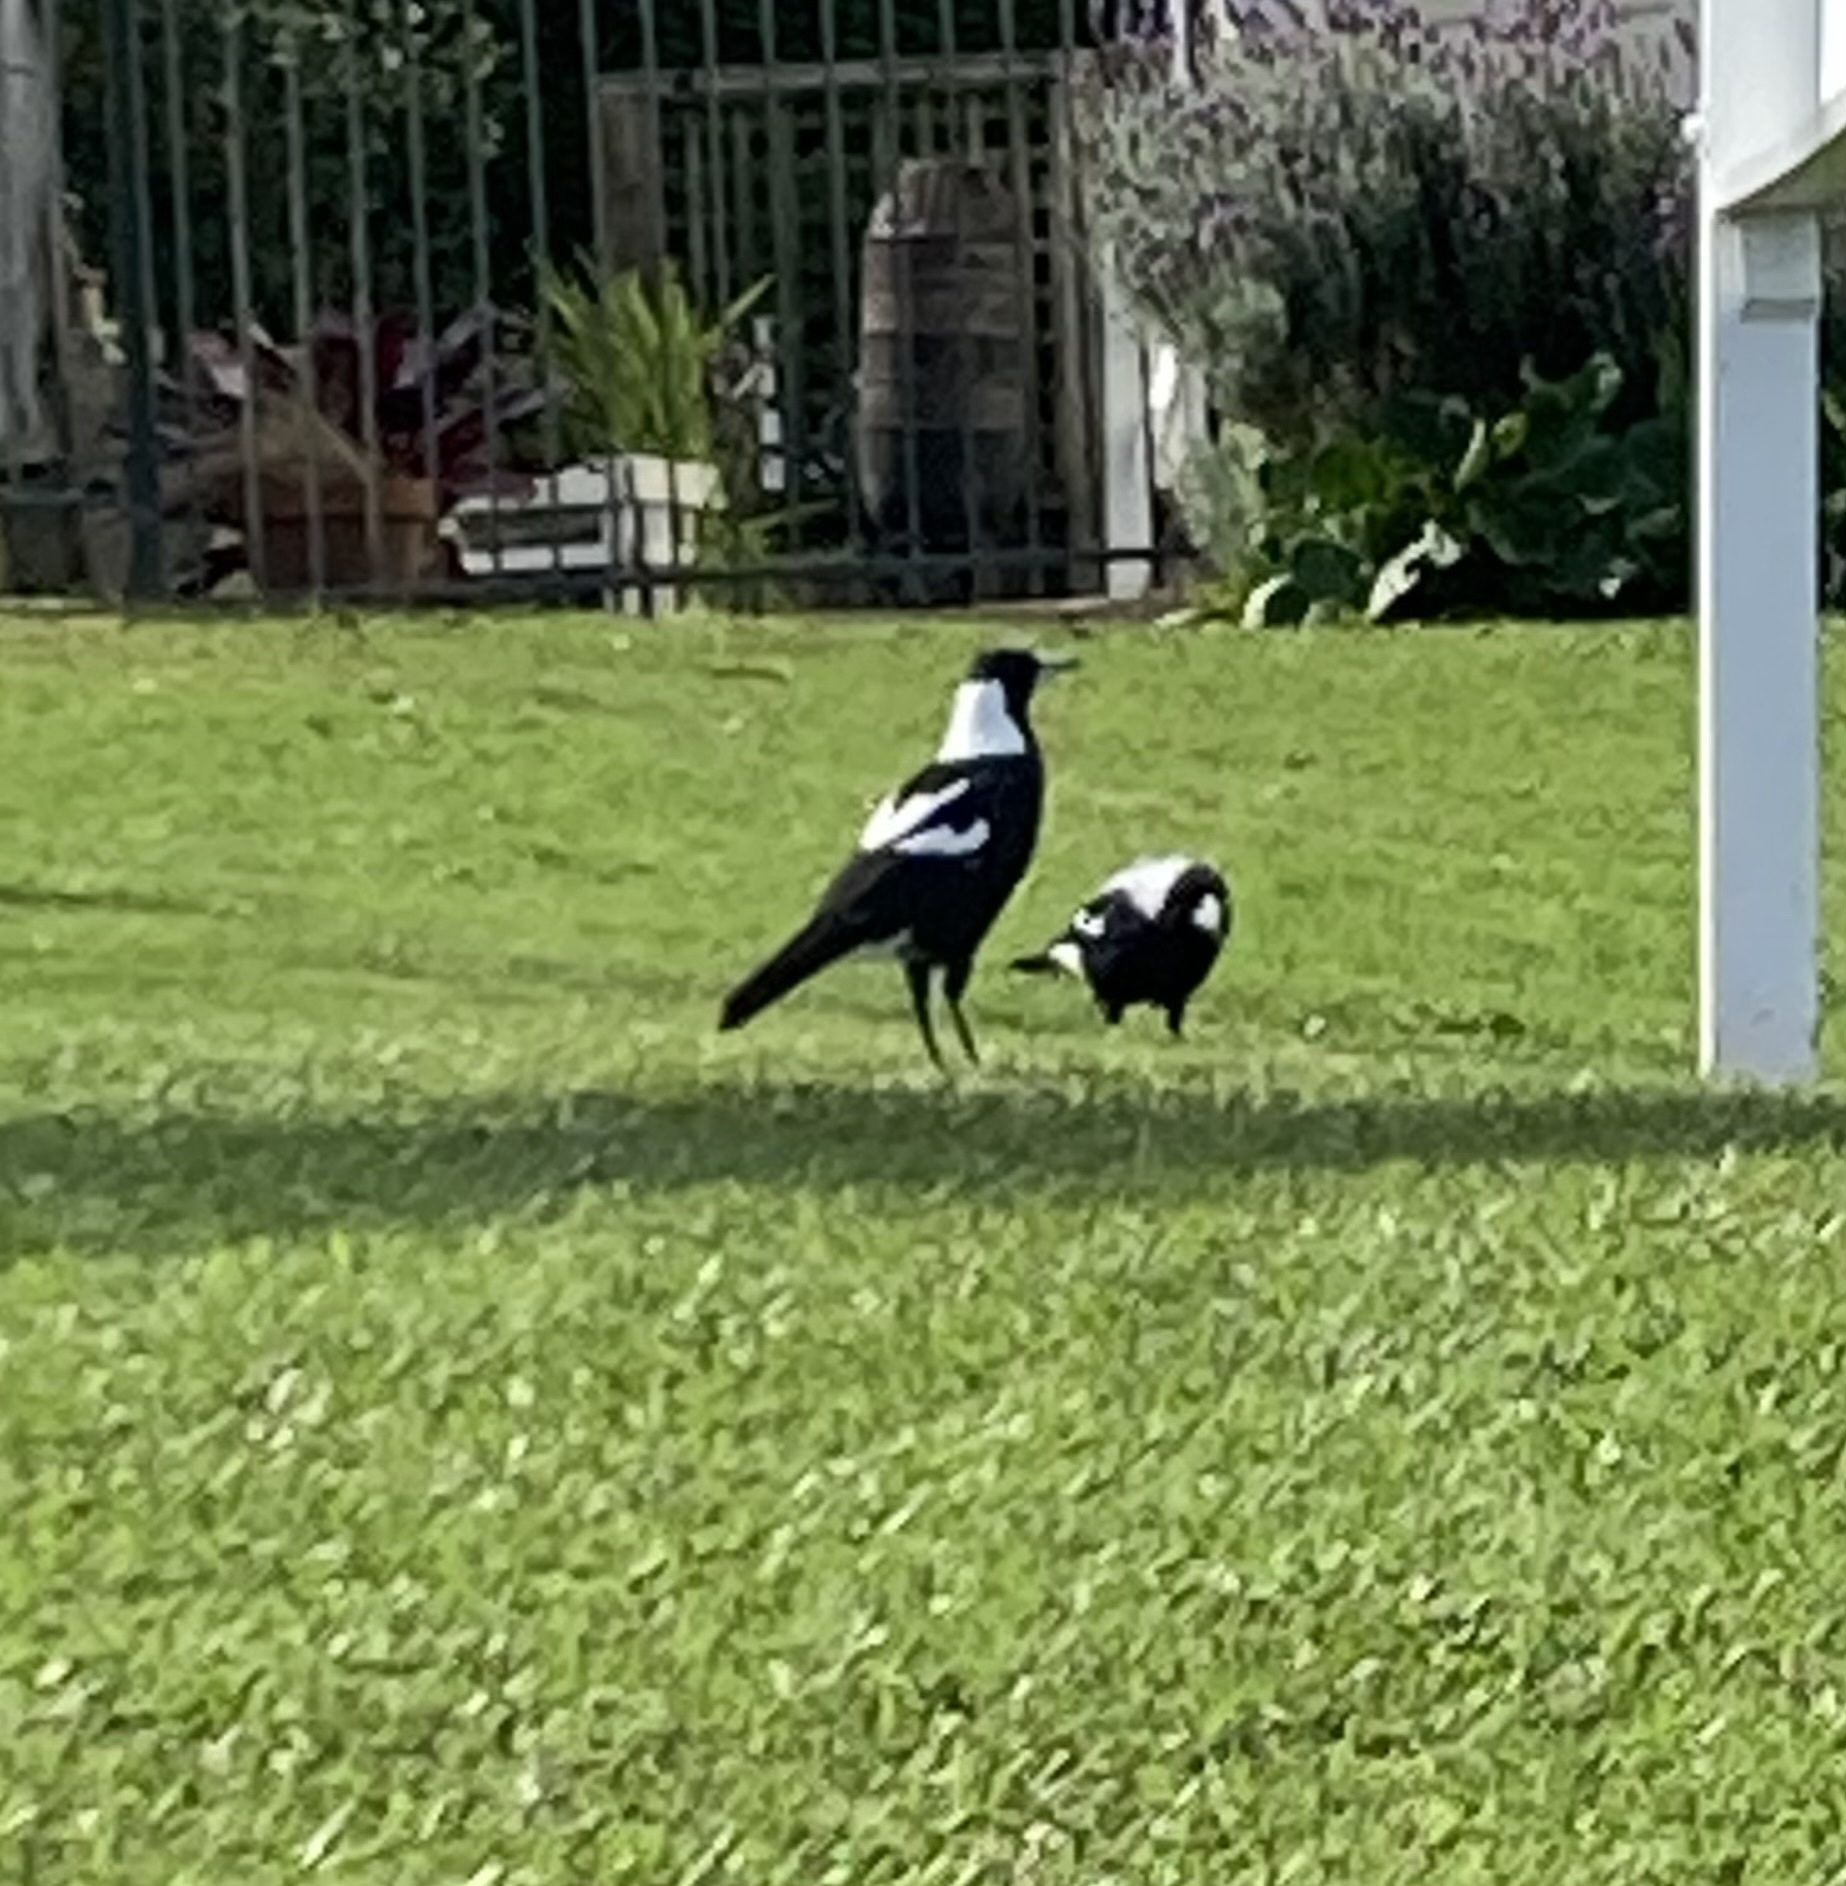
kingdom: Animalia
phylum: Chordata
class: Aves
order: Passeriformes
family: Cracticidae
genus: Gymnorhina
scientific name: Gymnorhina tibicen
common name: Australian magpie
